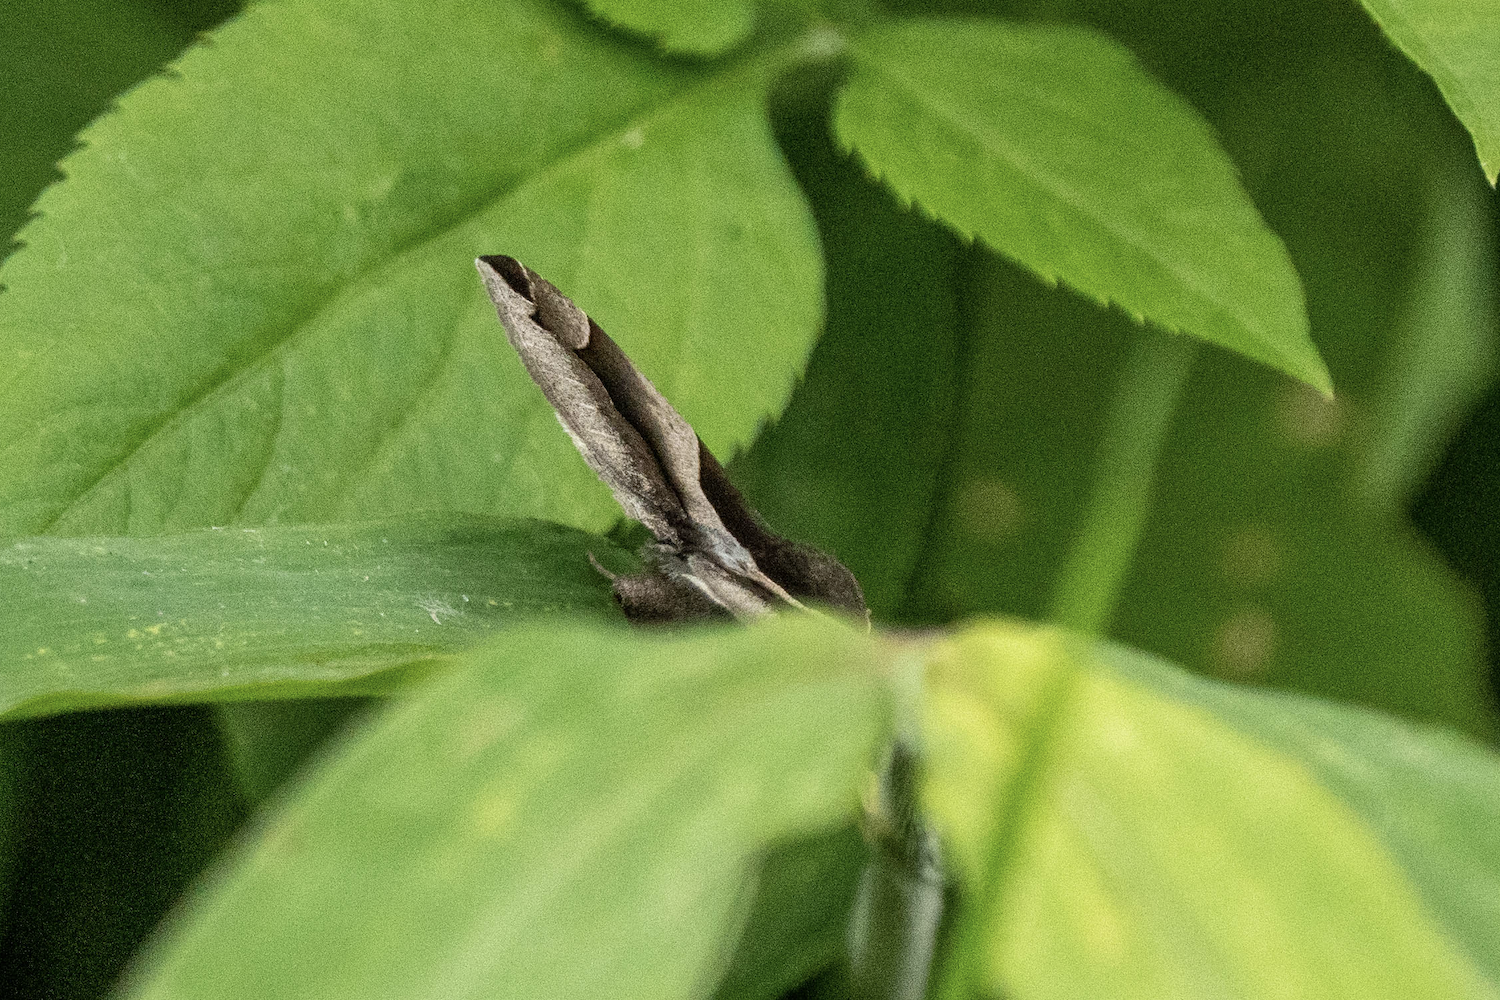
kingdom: Animalia
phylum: Arthropoda
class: Insecta
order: Lepidoptera
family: Erebidae
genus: Dysgonia
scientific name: Dysgonia stuposa
